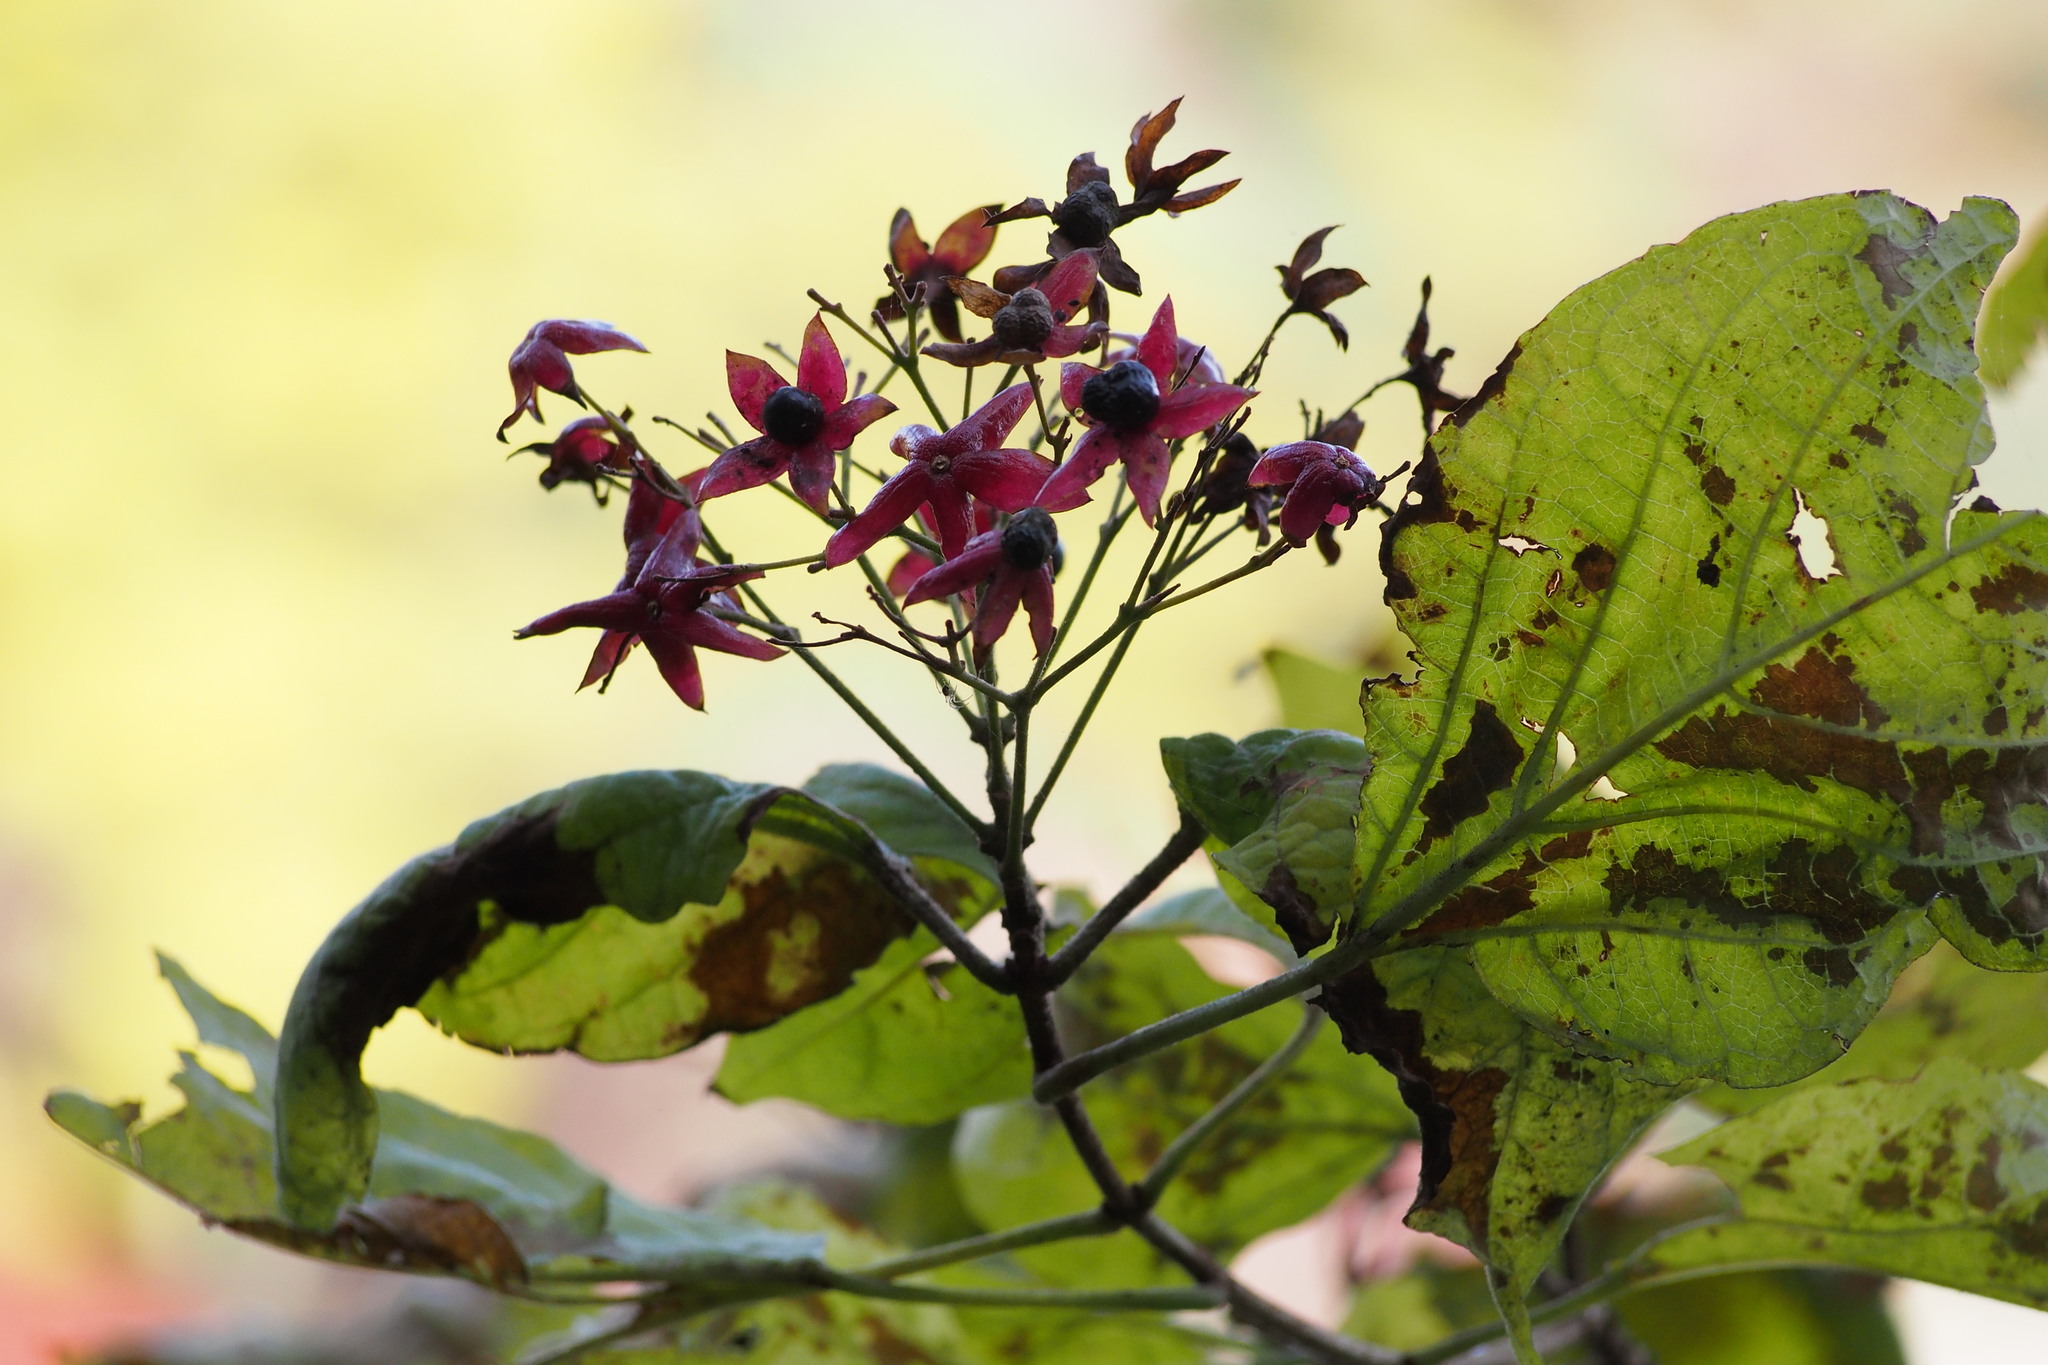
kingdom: Plantae
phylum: Tracheophyta
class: Magnoliopsida
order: Lamiales
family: Lamiaceae
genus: Clerodendrum
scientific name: Clerodendrum trichotomum
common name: Harlequin glorybower
